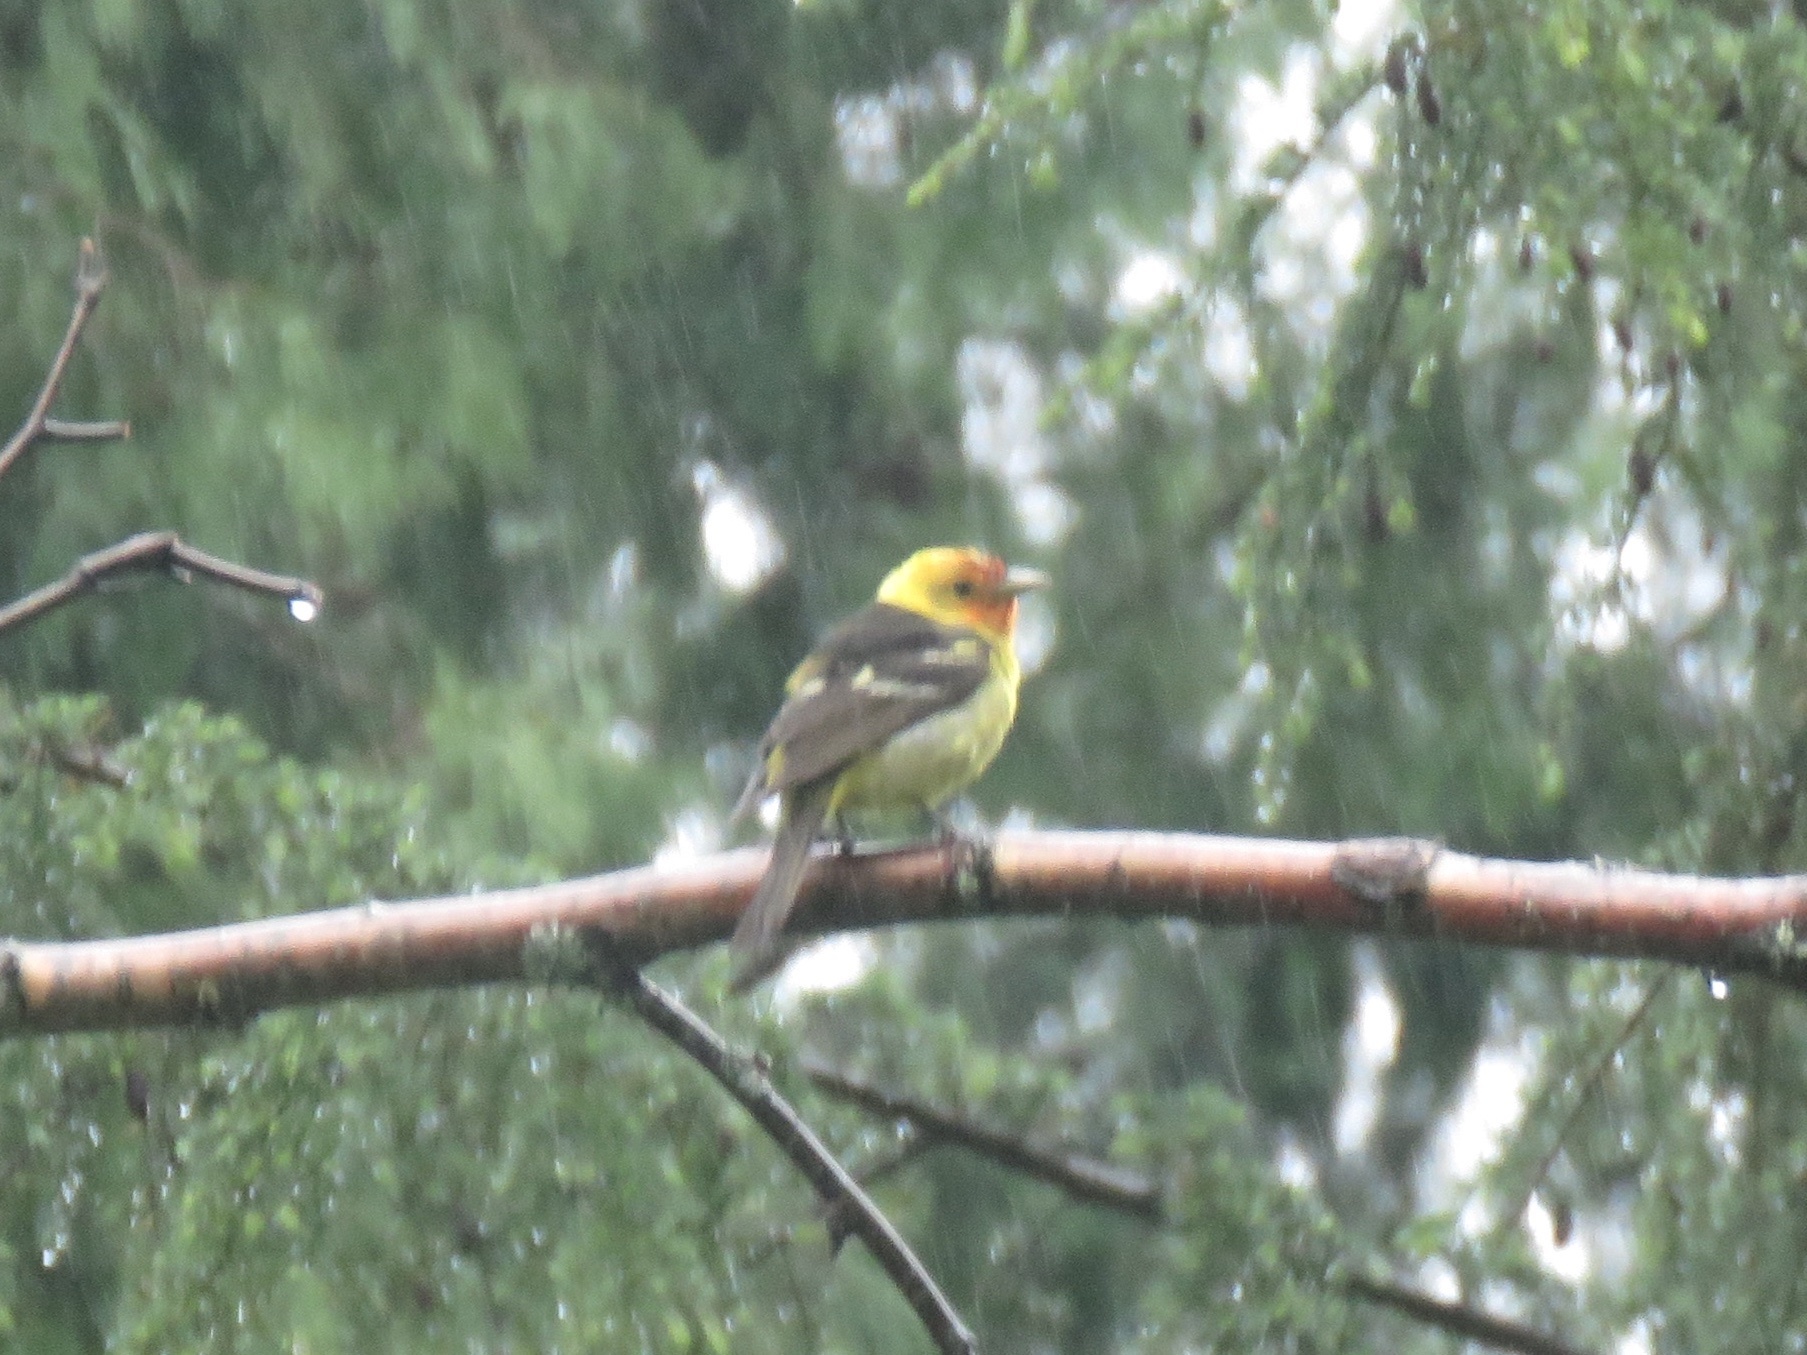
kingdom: Animalia
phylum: Chordata
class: Aves
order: Passeriformes
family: Cardinalidae
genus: Piranga
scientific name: Piranga ludoviciana
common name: Western tanager
